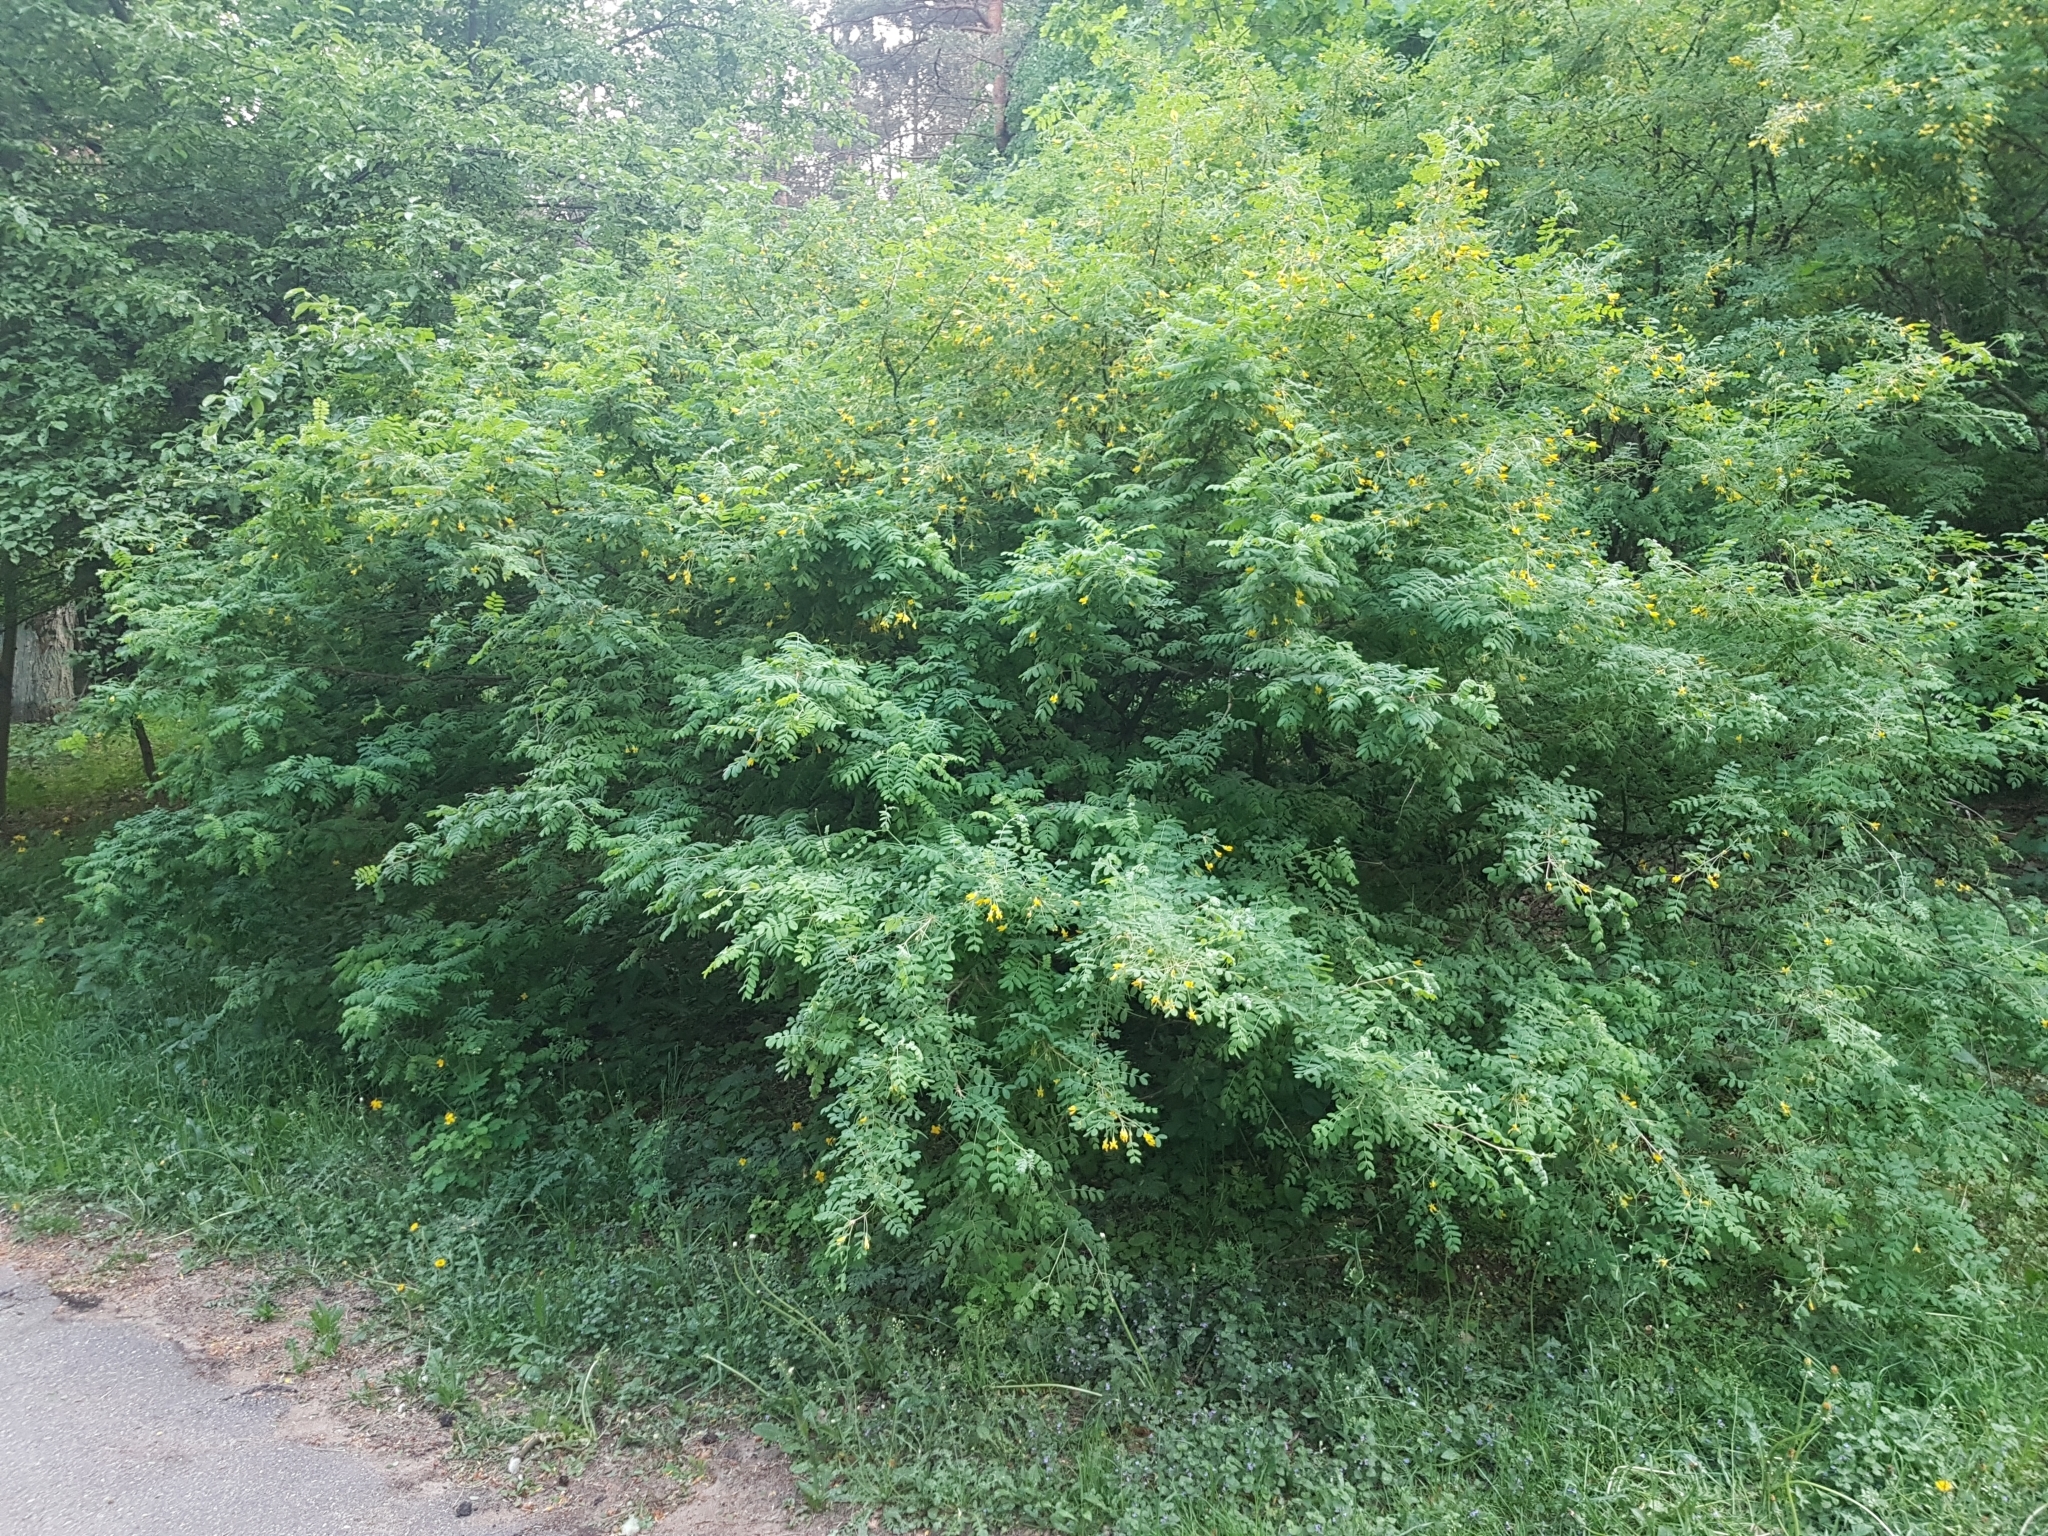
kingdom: Plantae
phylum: Tracheophyta
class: Magnoliopsida
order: Fabales
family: Fabaceae
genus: Caragana
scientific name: Caragana arborescens
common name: Siberian peashrub
